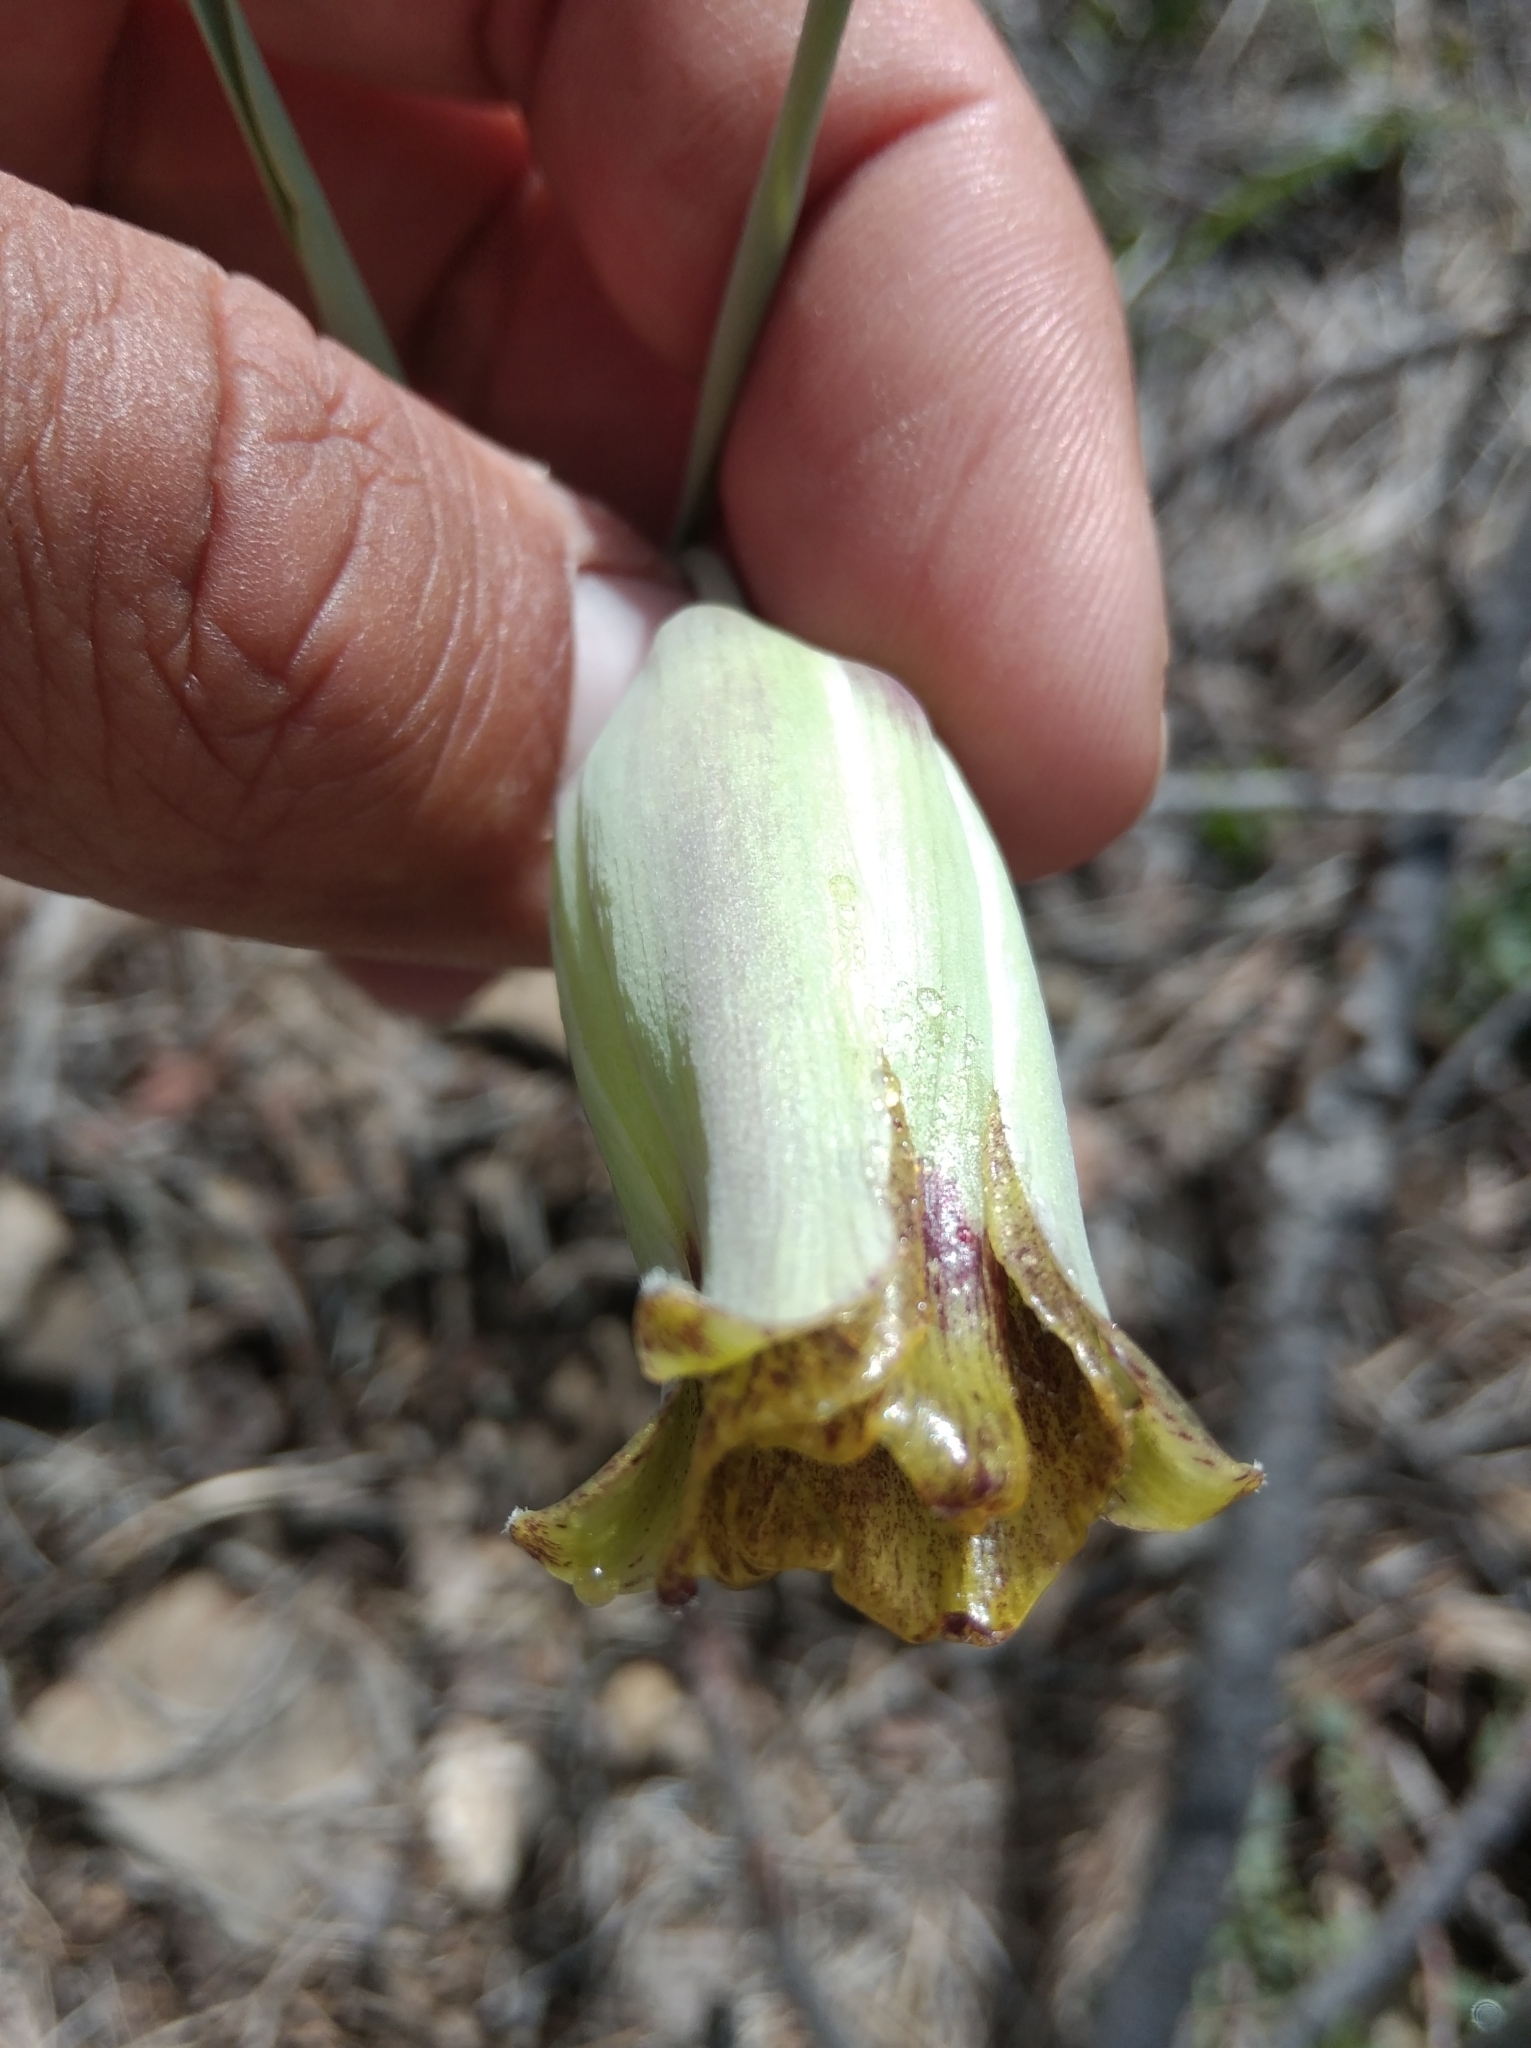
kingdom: Plantae
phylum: Tracheophyta
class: Liliopsida
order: Liliales
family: Liliaceae
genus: Fritillaria
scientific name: Fritillaria acmopetala
